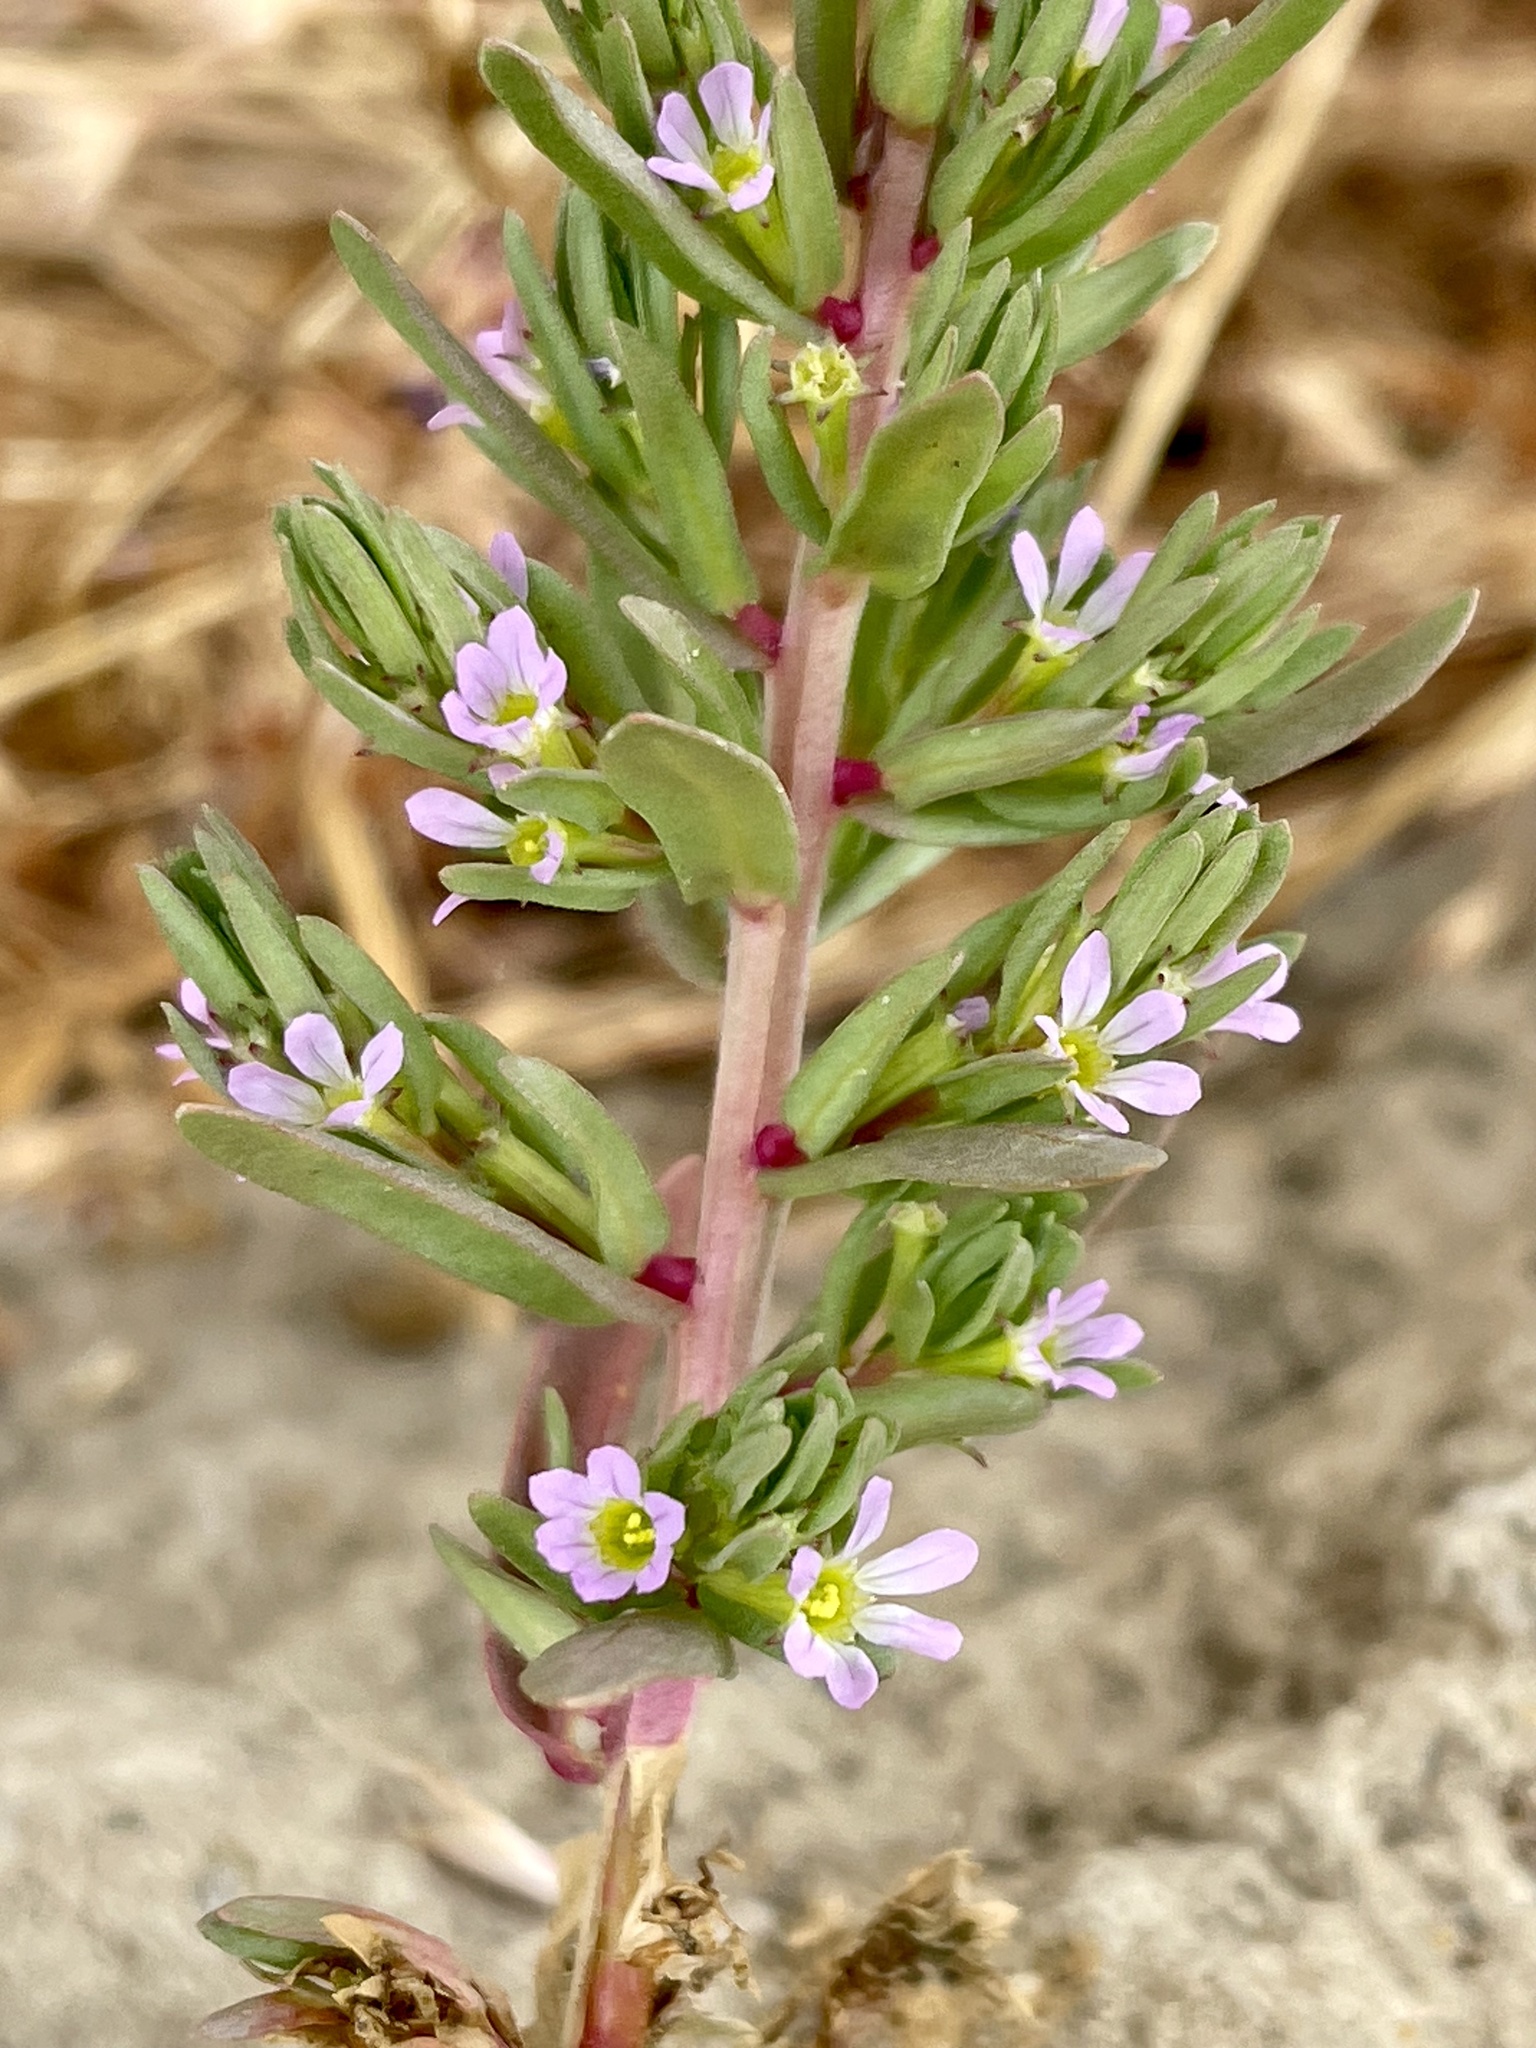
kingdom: Plantae
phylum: Tracheophyta
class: Magnoliopsida
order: Myrtales
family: Lythraceae
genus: Lythrum
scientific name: Lythrum hyssopifolia
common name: Grass-poly
